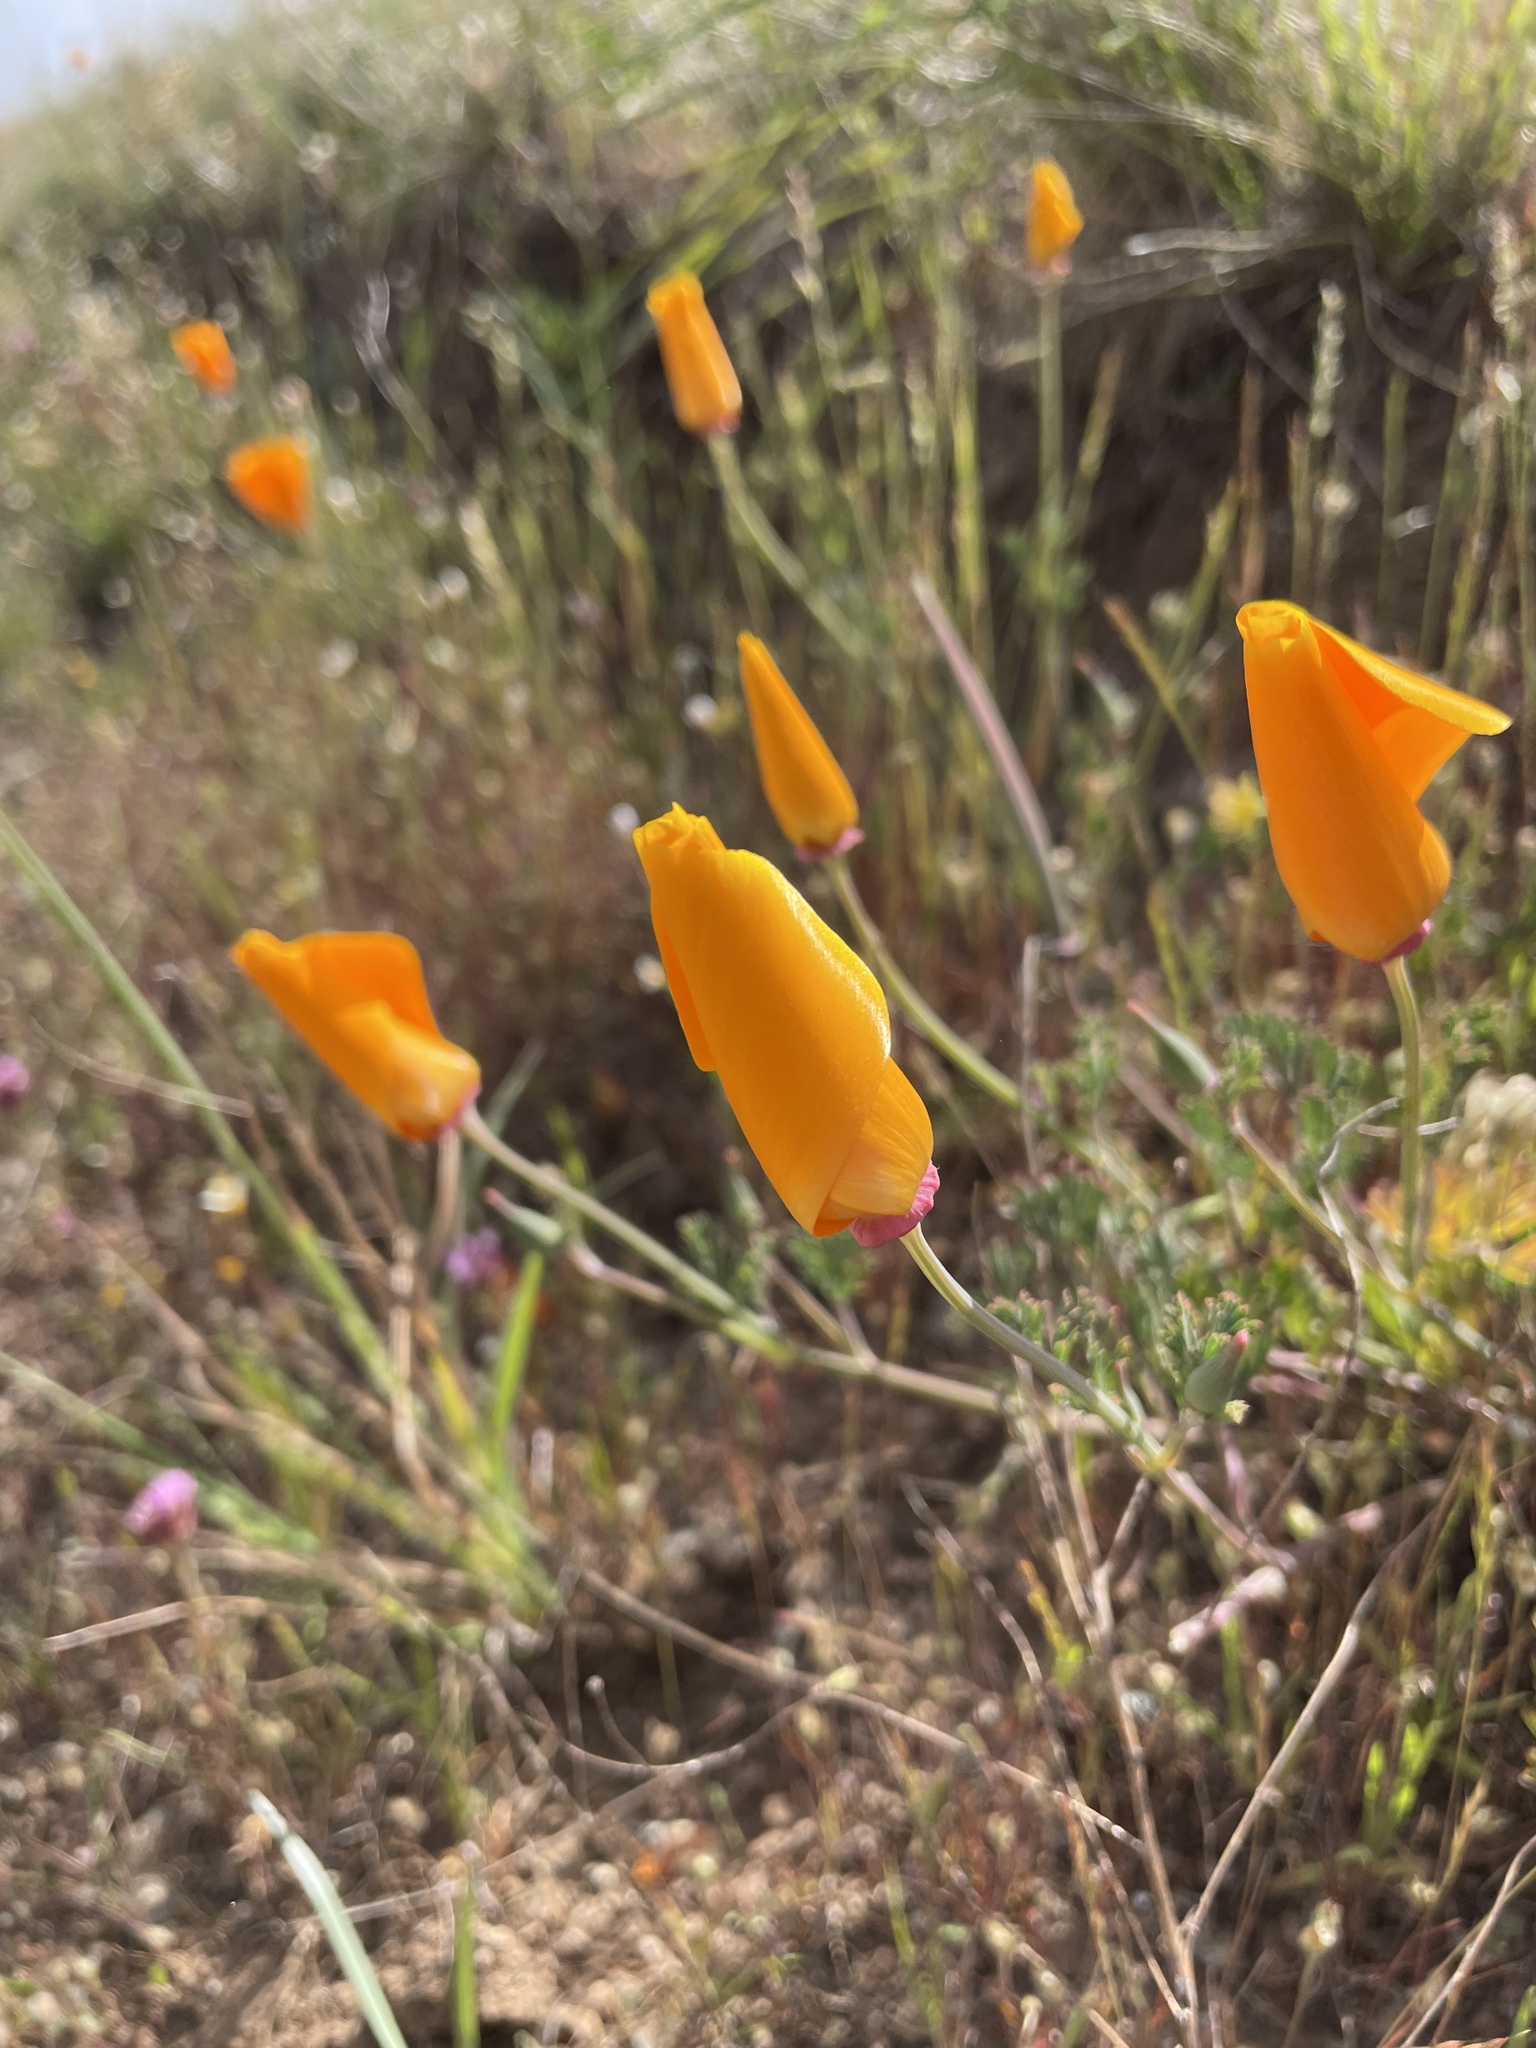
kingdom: Plantae
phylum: Tracheophyta
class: Magnoliopsida
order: Ranunculales
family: Papaveraceae
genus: Eschscholzia
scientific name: Eschscholzia californica
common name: California poppy
